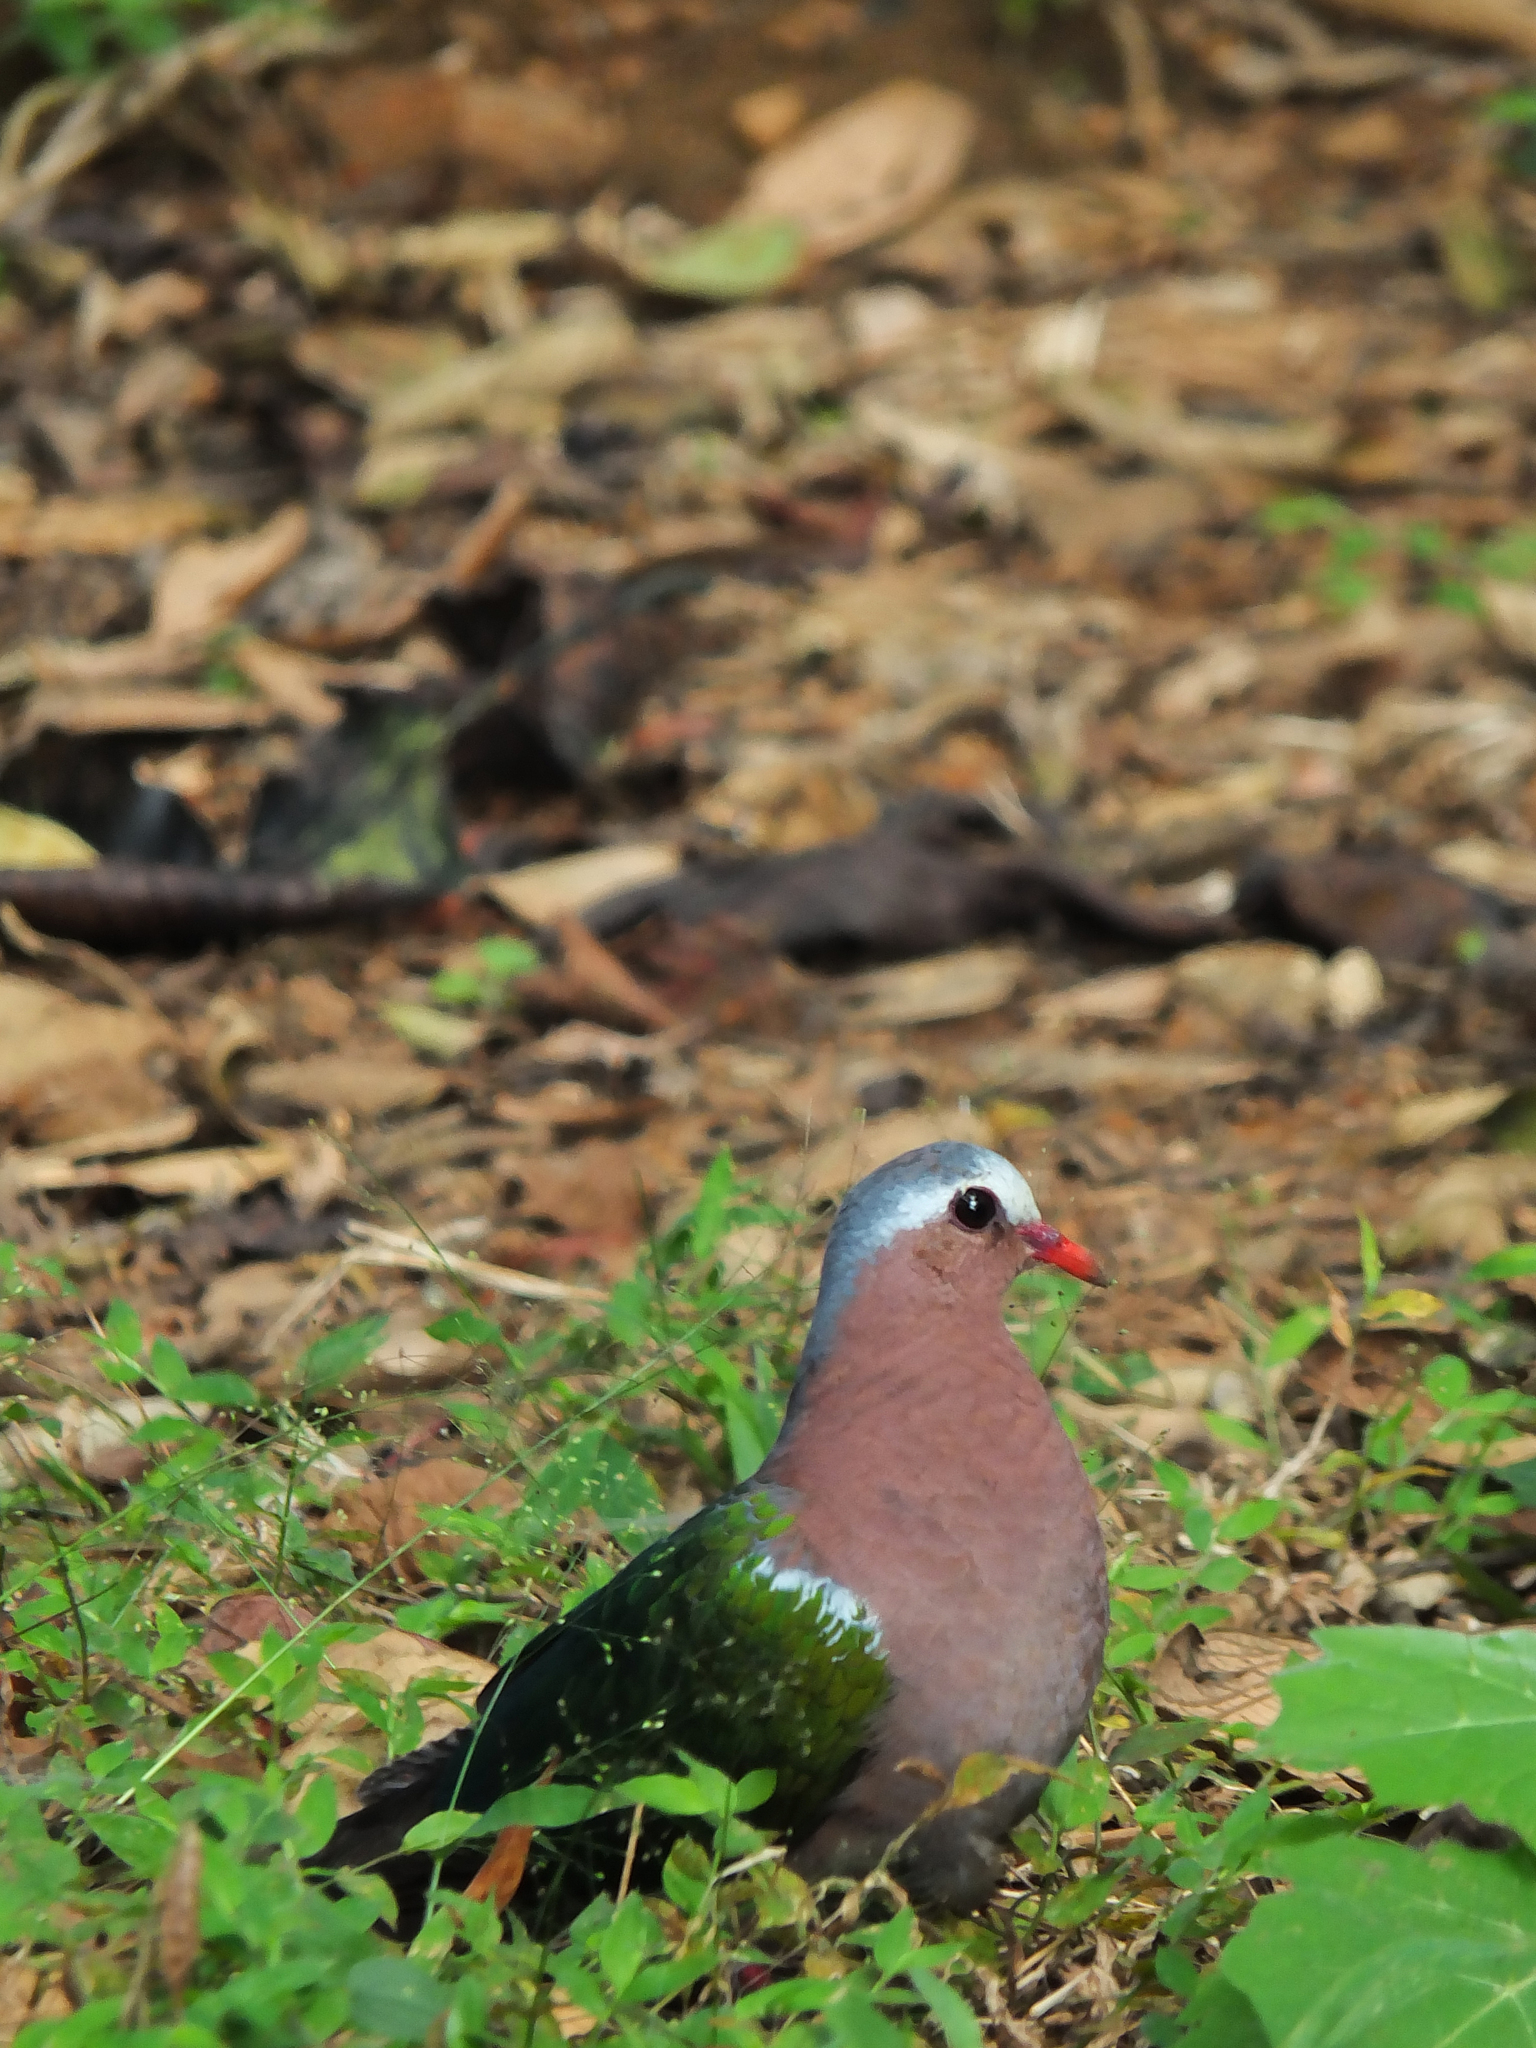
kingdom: Animalia
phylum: Chordata
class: Aves
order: Columbiformes
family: Columbidae
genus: Chalcophaps
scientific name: Chalcophaps indica
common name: Common emerald dove
